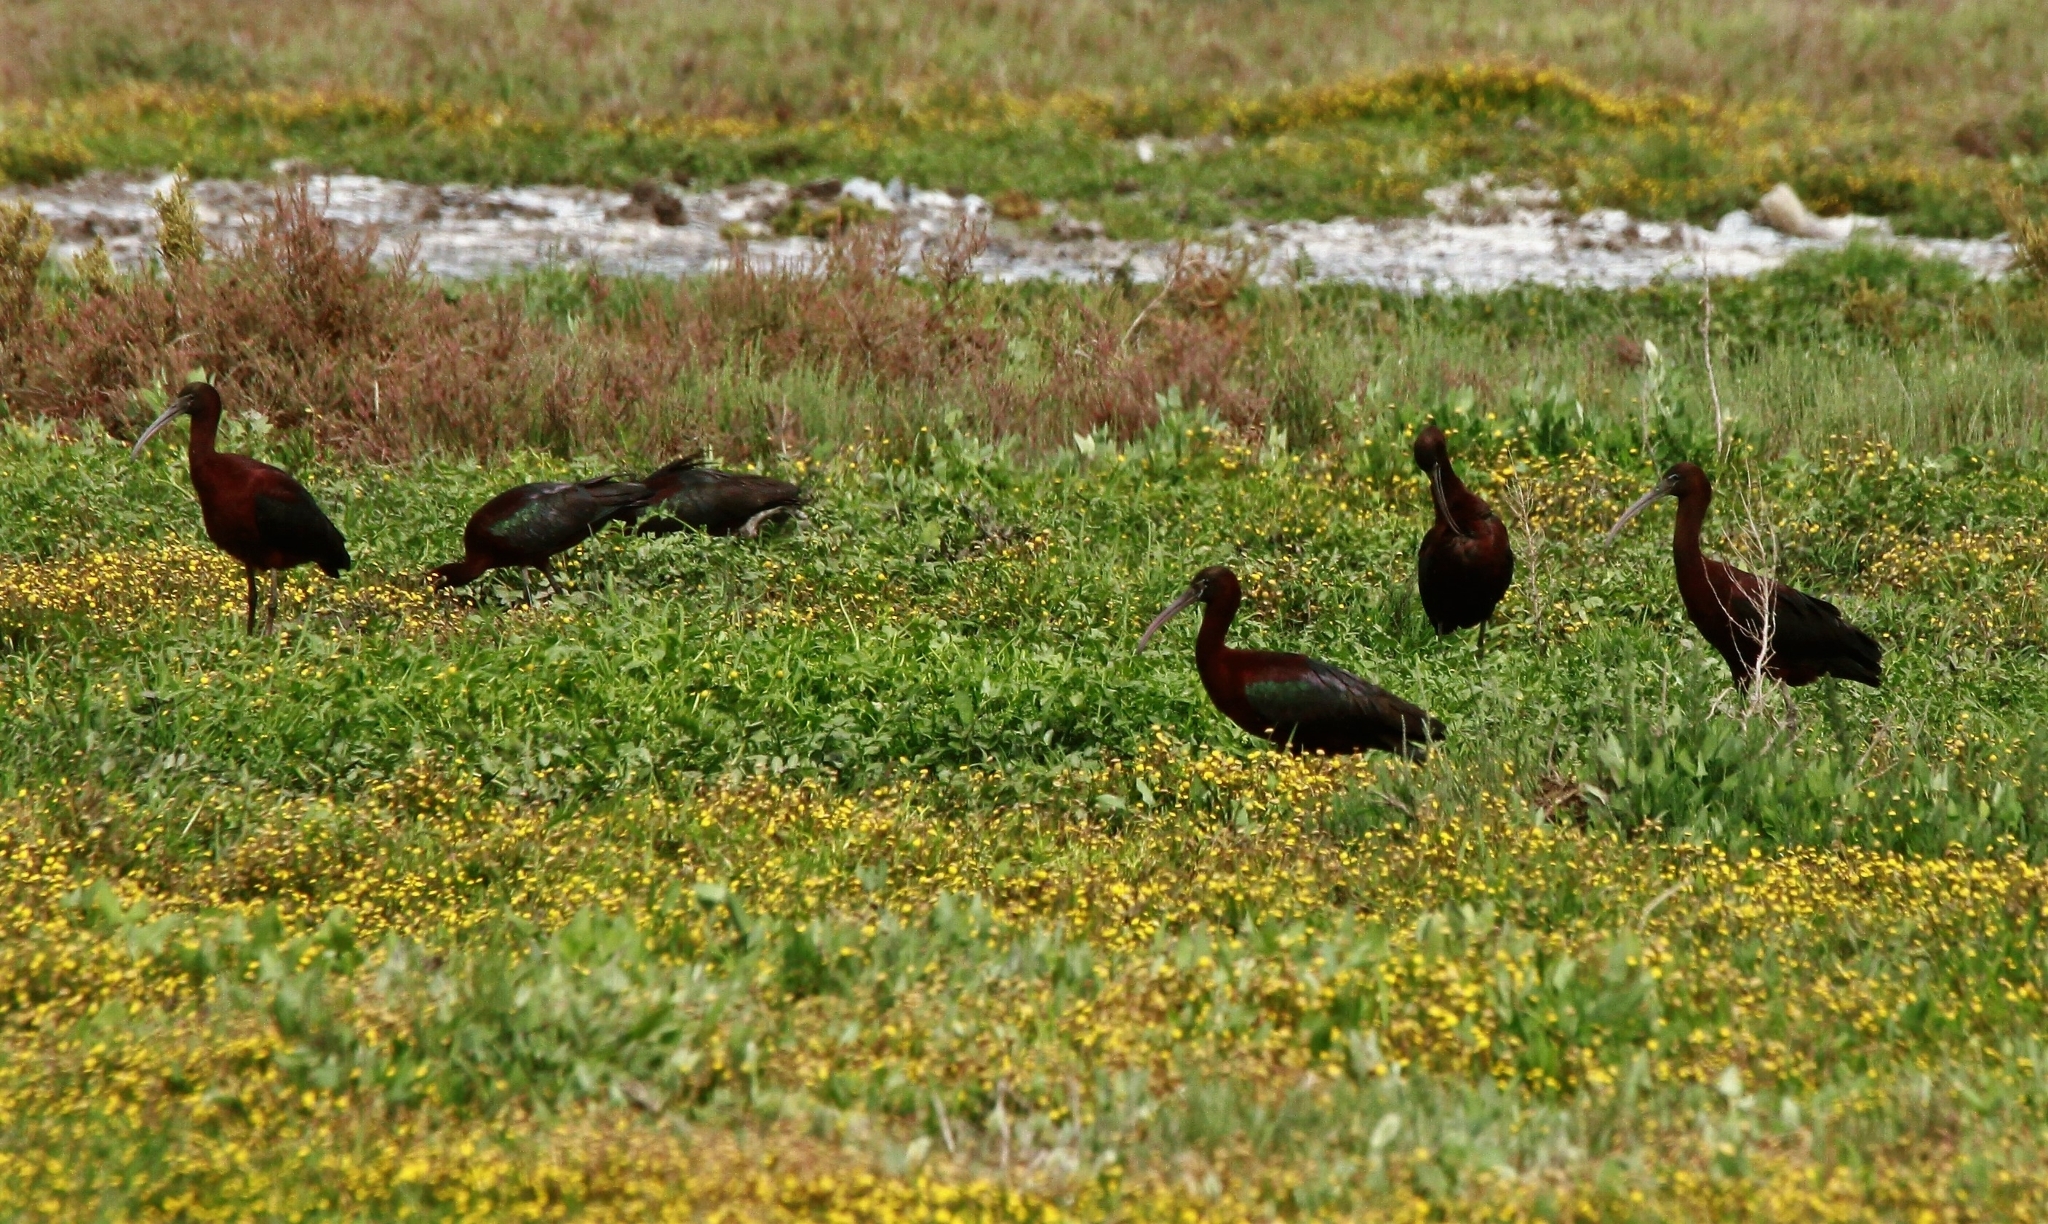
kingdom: Animalia
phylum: Chordata
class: Aves
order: Pelecaniformes
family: Threskiornithidae
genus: Plegadis
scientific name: Plegadis falcinellus
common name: Glossy ibis
